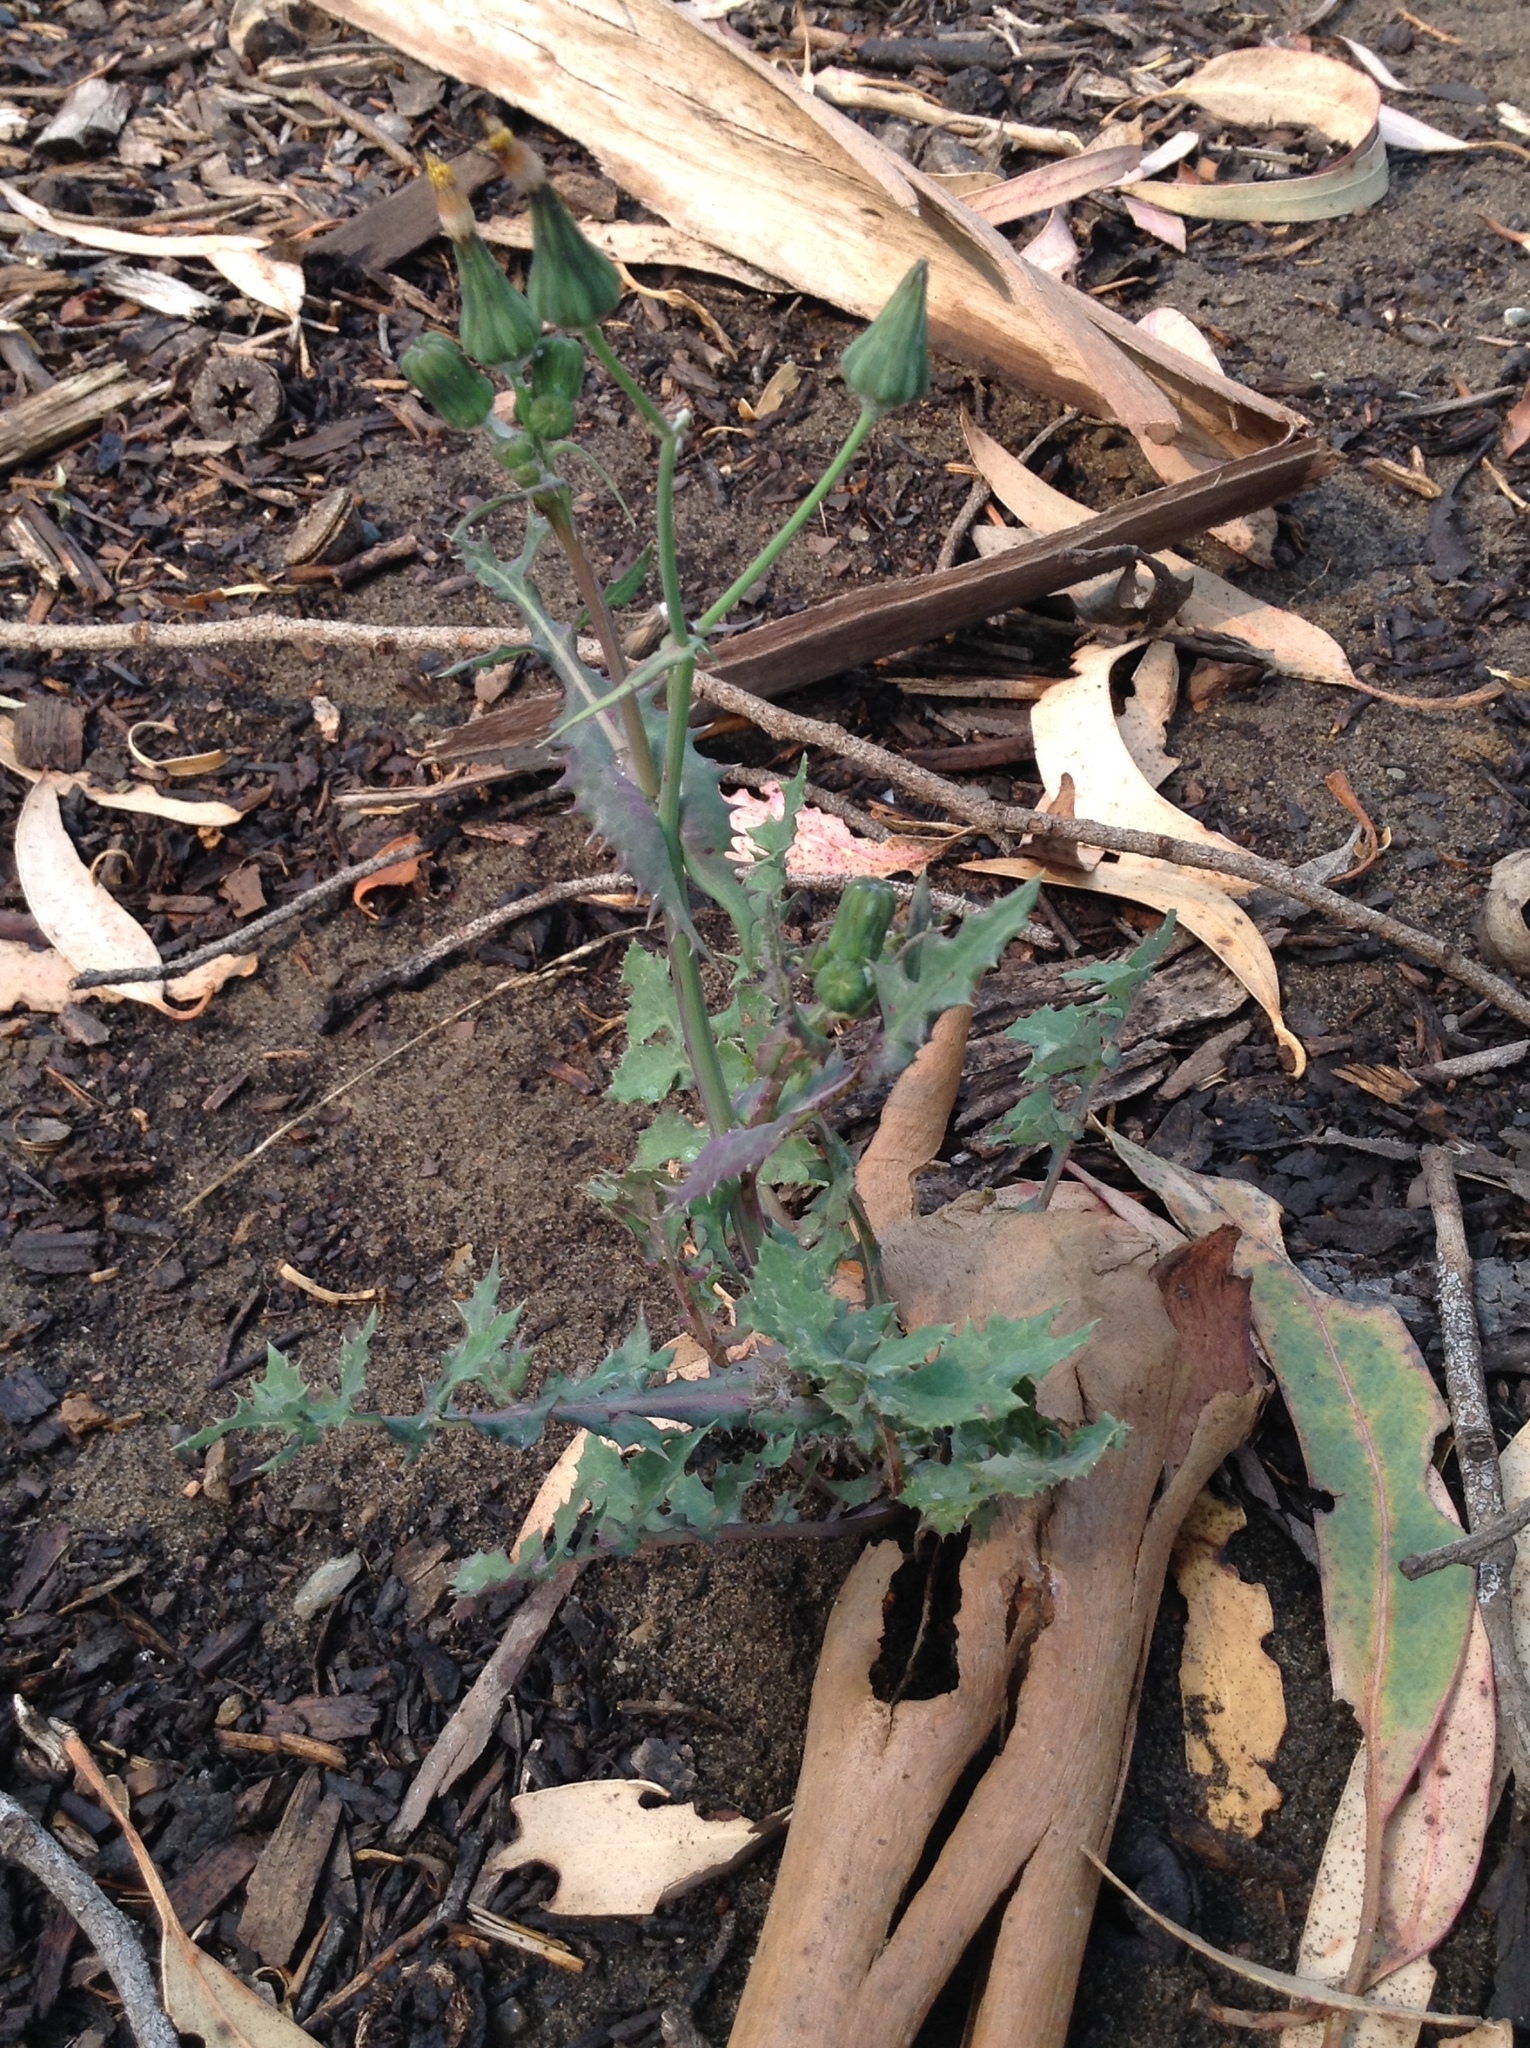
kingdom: Plantae
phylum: Tracheophyta
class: Magnoliopsida
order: Asterales
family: Asteraceae
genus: Sonchus
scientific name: Sonchus oleraceus
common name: Common sowthistle
